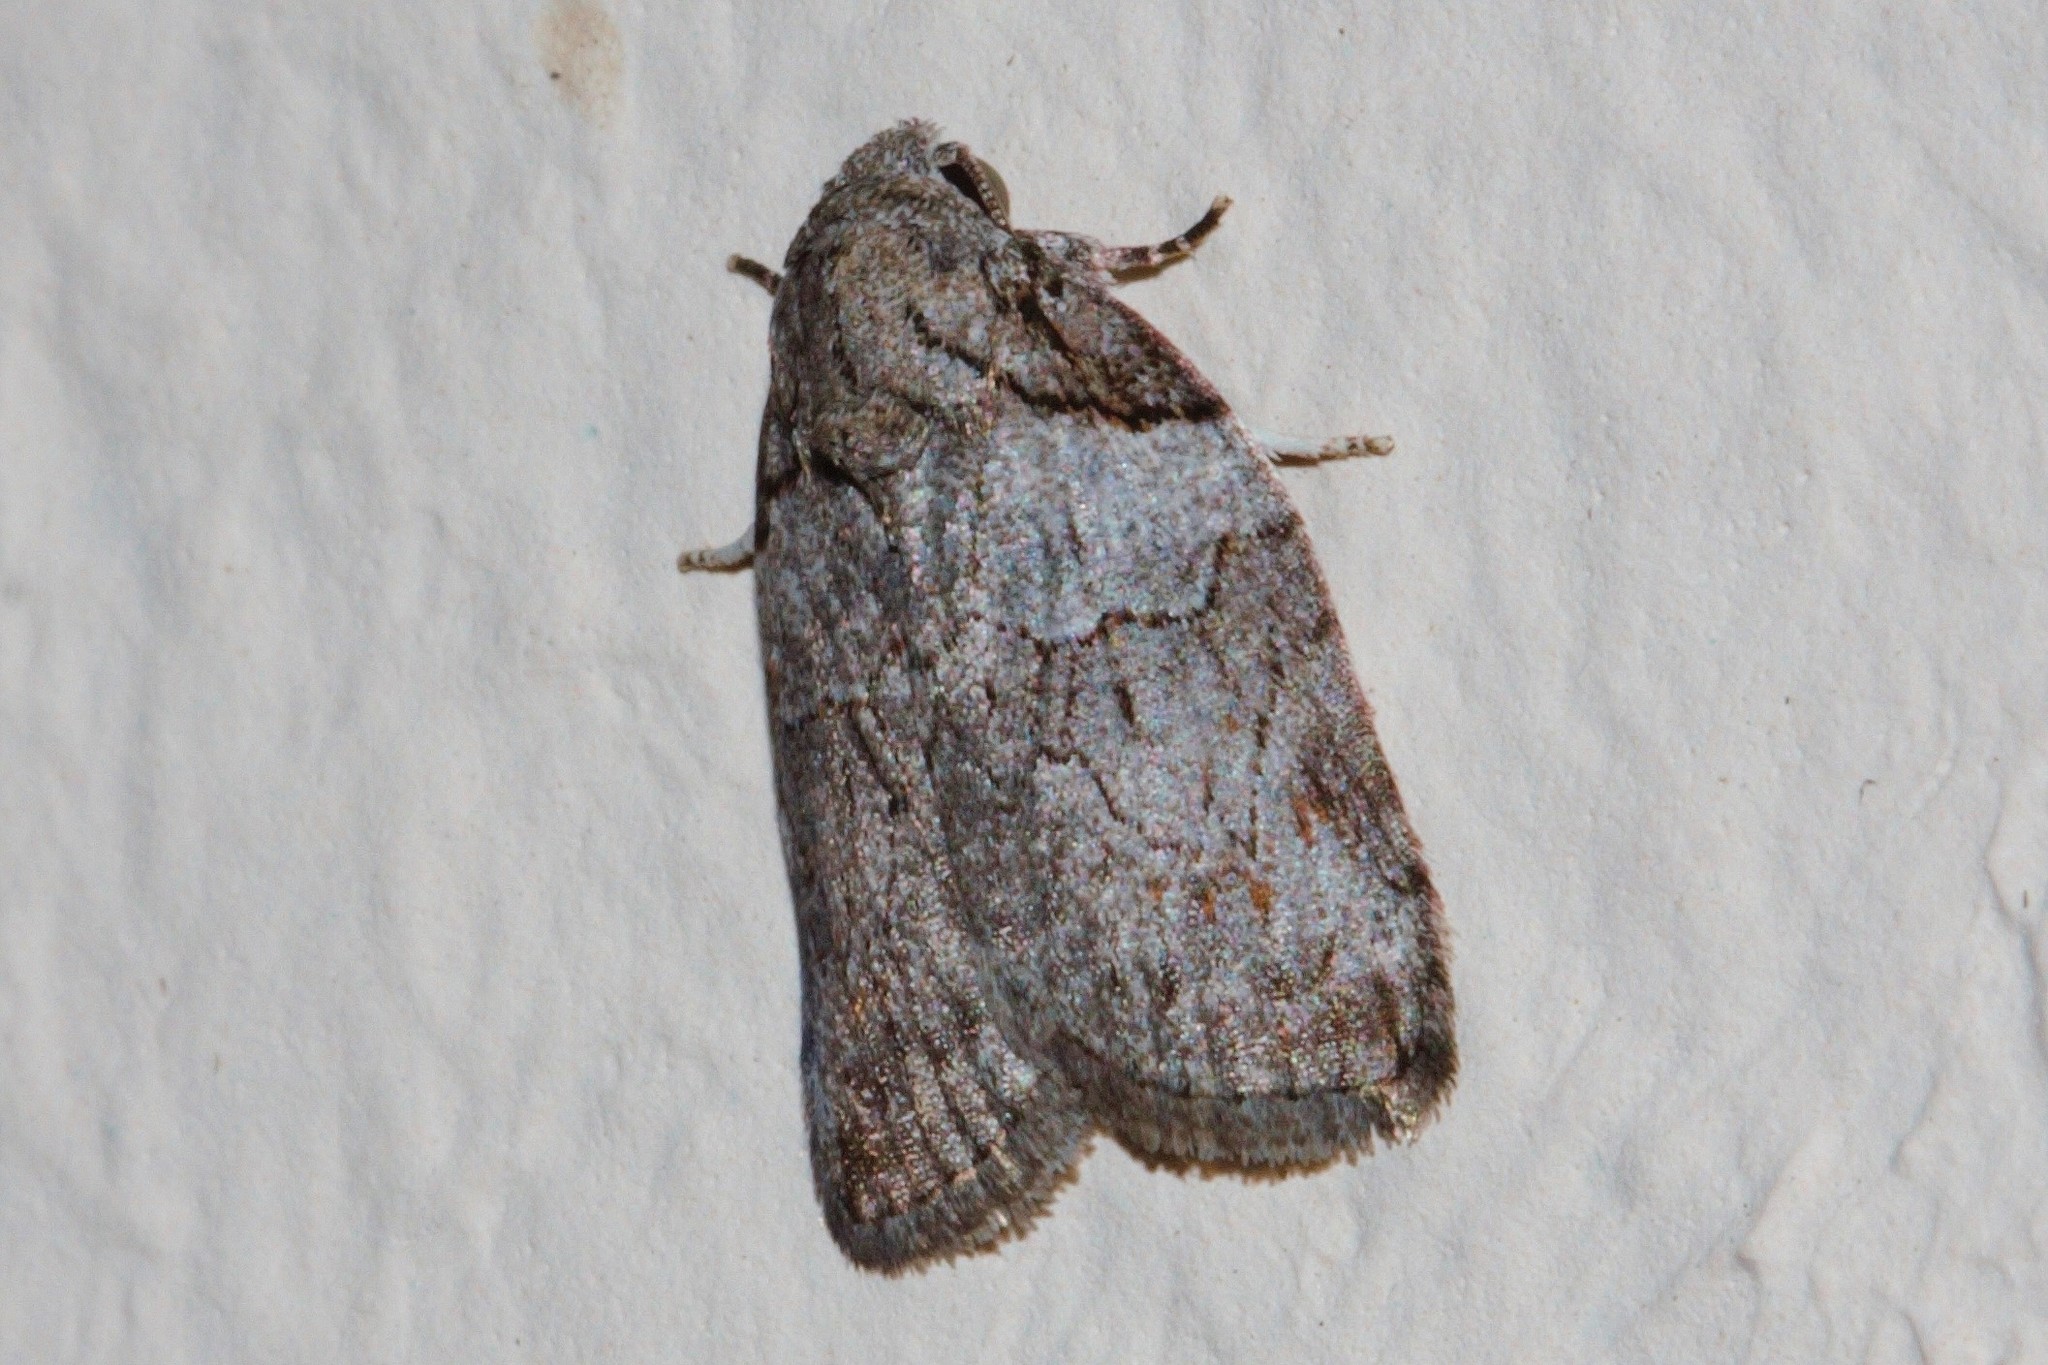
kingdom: Animalia
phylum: Arthropoda
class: Insecta
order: Lepidoptera
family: Nolidae
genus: Pardasena
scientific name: Pardasena virgulana
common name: Grey square
